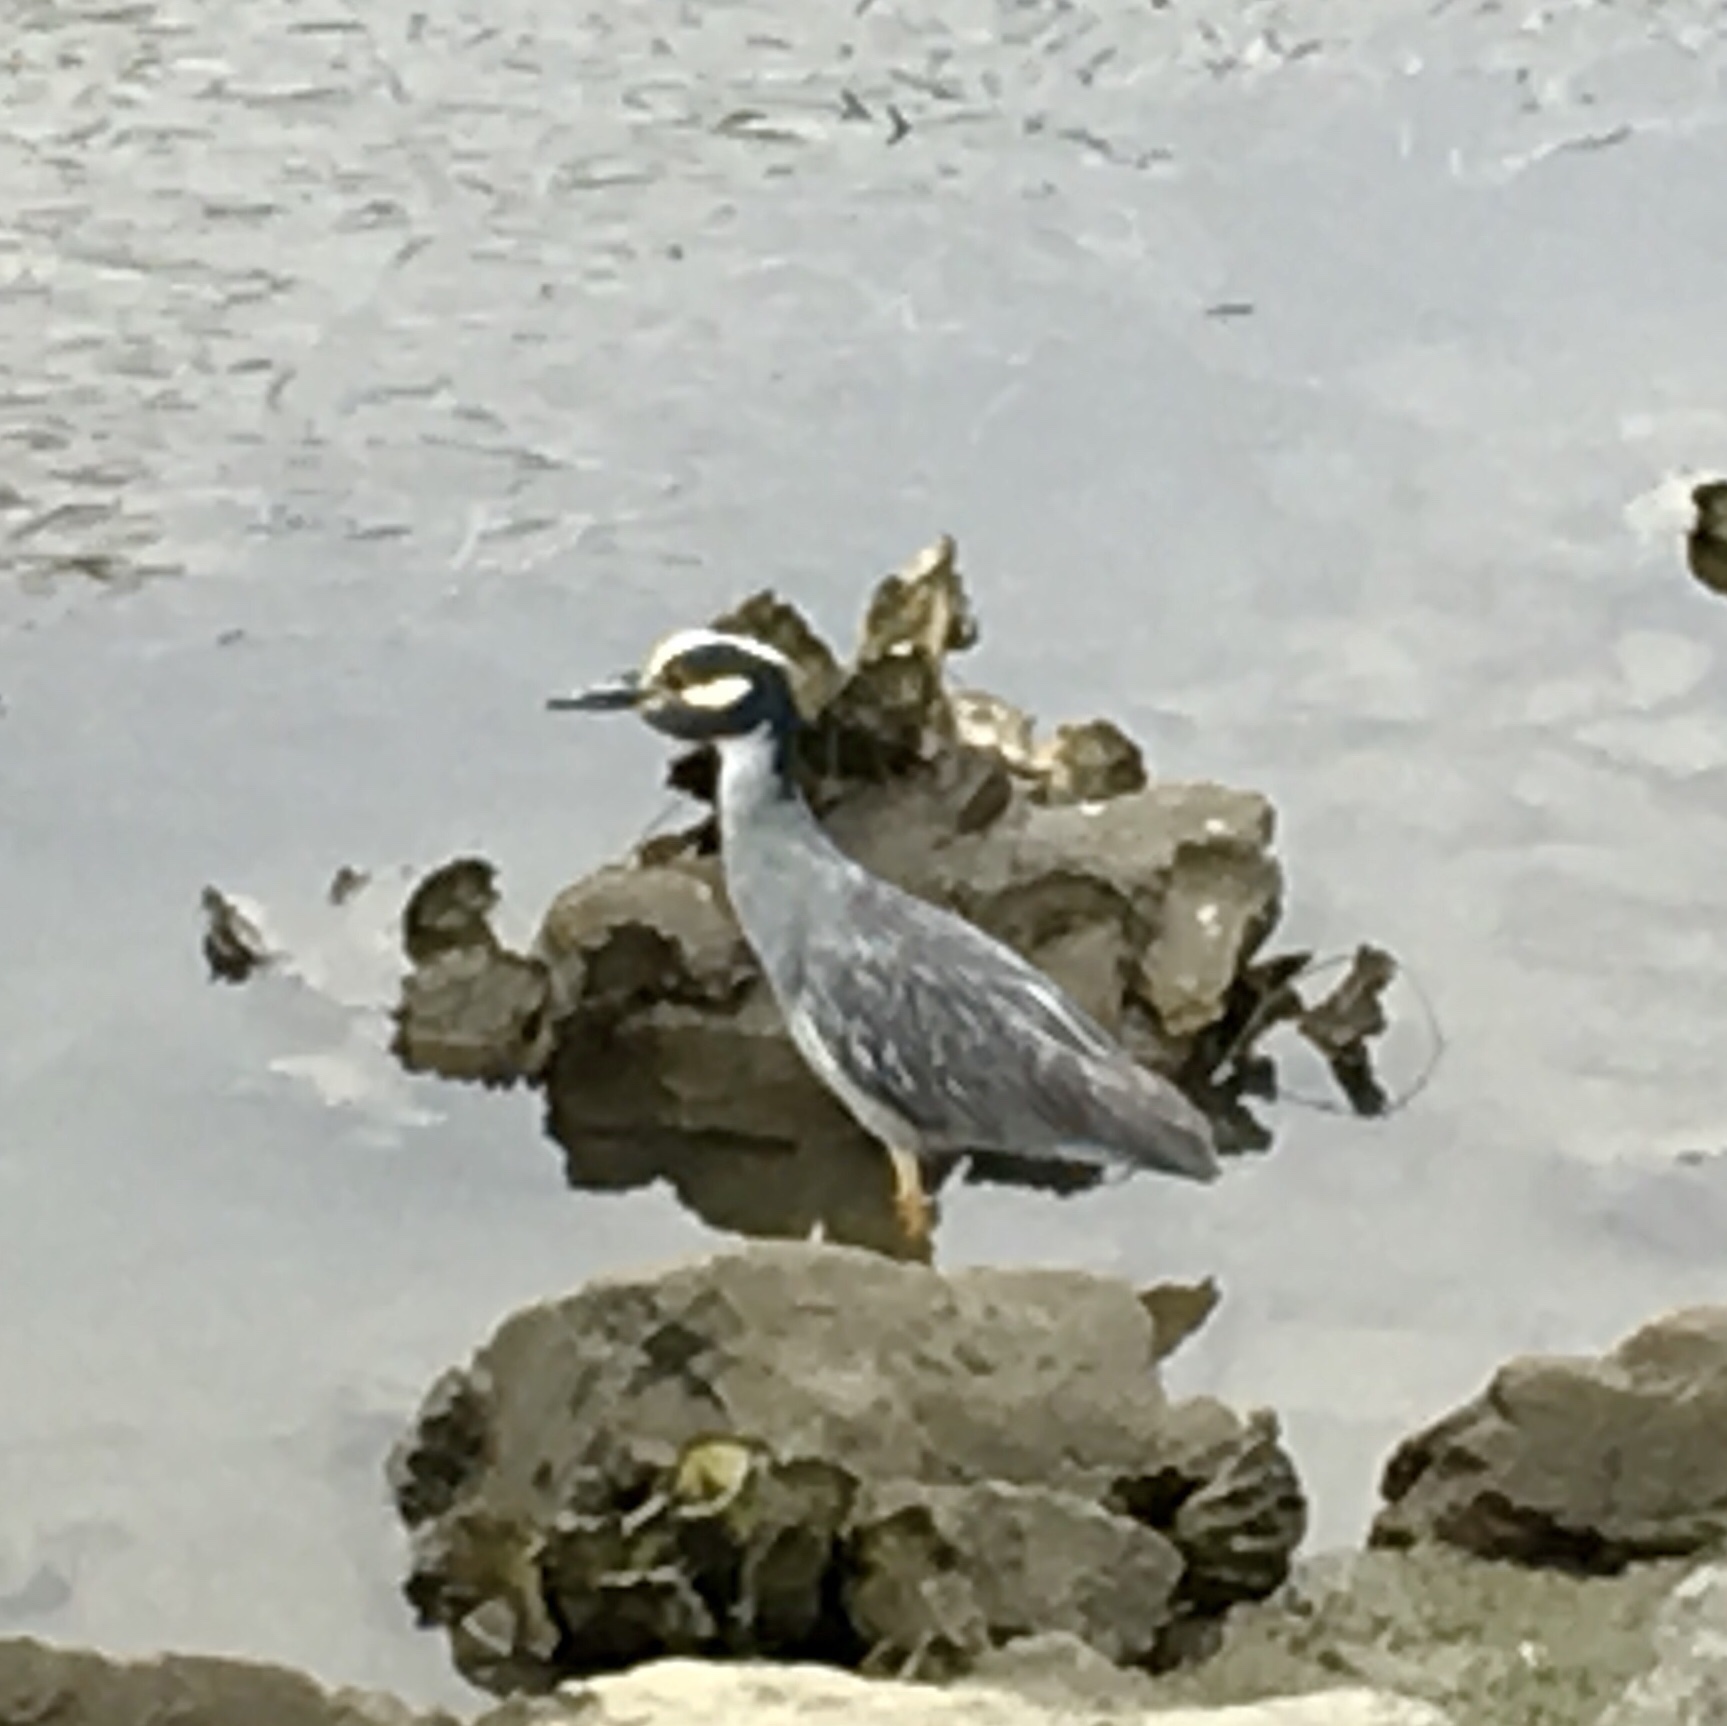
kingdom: Animalia
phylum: Chordata
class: Aves
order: Pelecaniformes
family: Ardeidae
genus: Nyctanassa
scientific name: Nyctanassa violacea
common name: Yellow-crowned night heron
